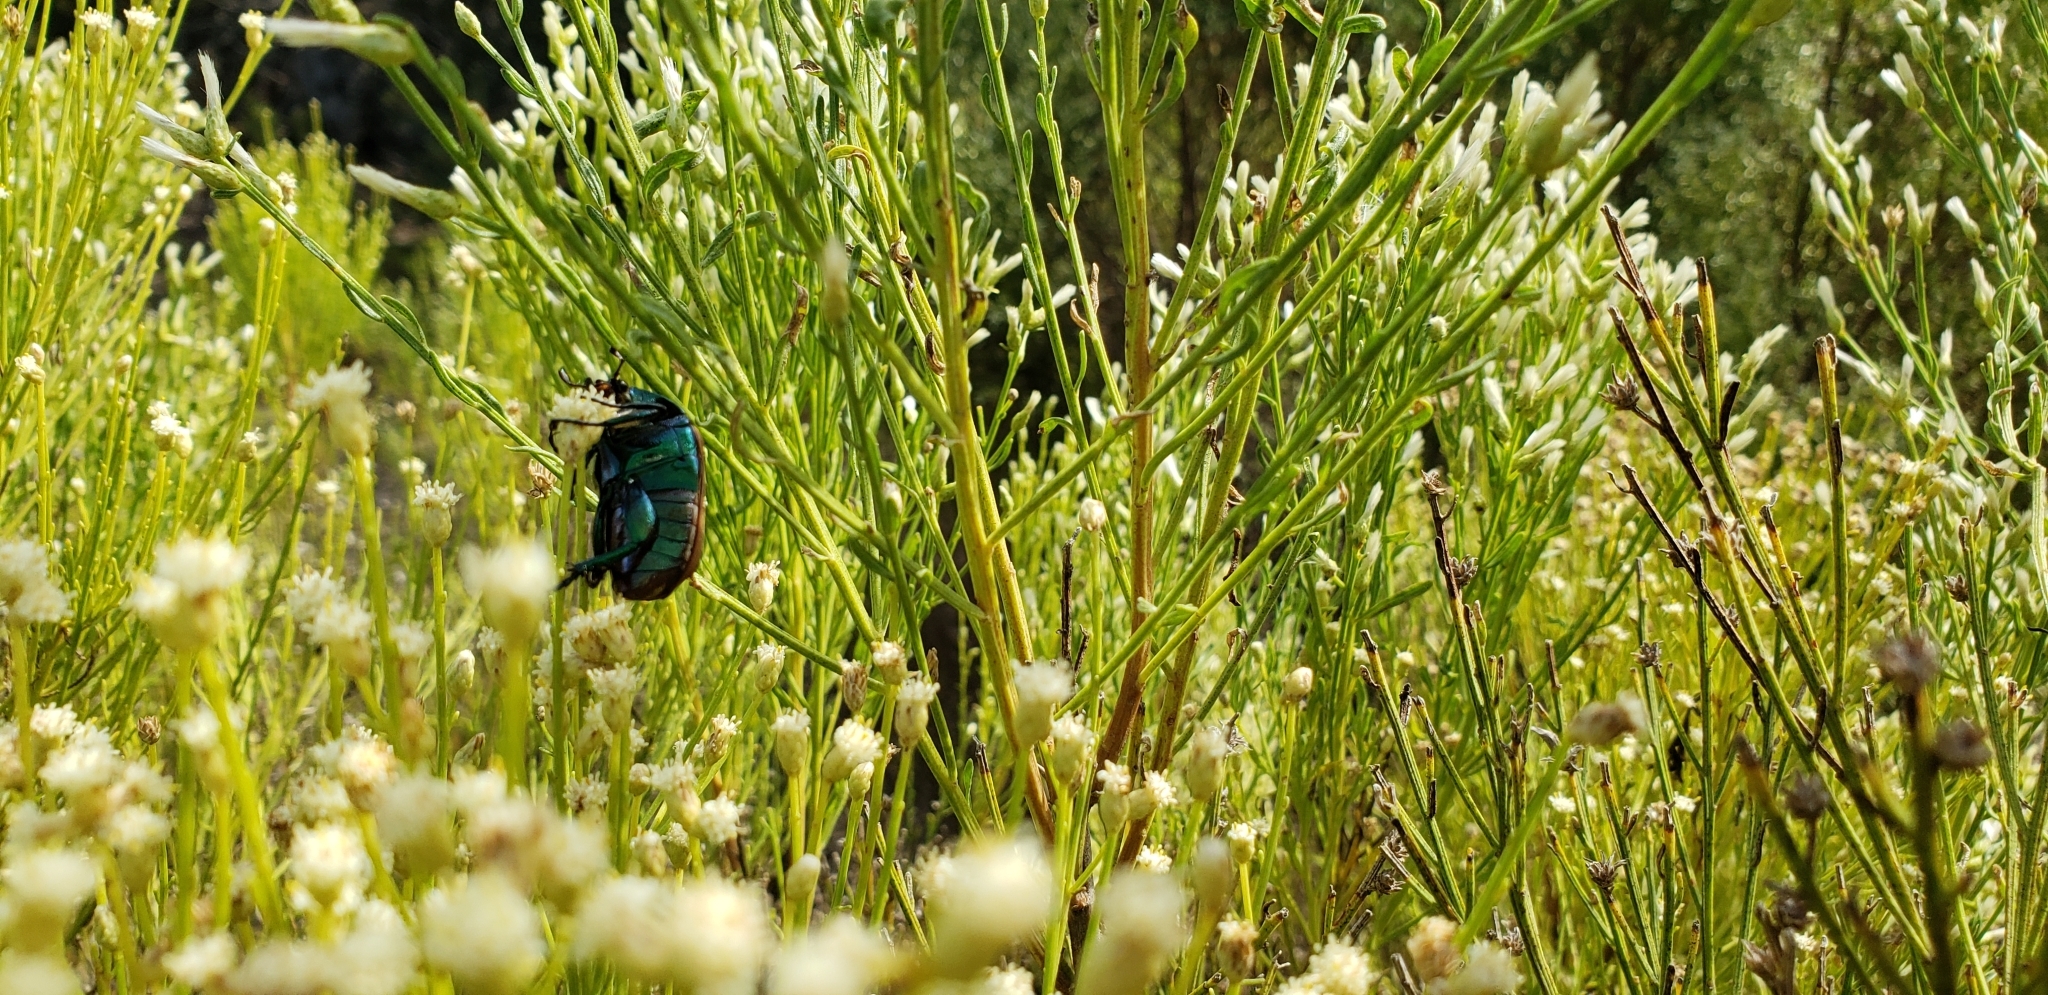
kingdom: Animalia
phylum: Arthropoda
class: Insecta
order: Coleoptera
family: Scarabaeidae
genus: Cotinis
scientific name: Cotinis mutabilis
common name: Figeater beetle
